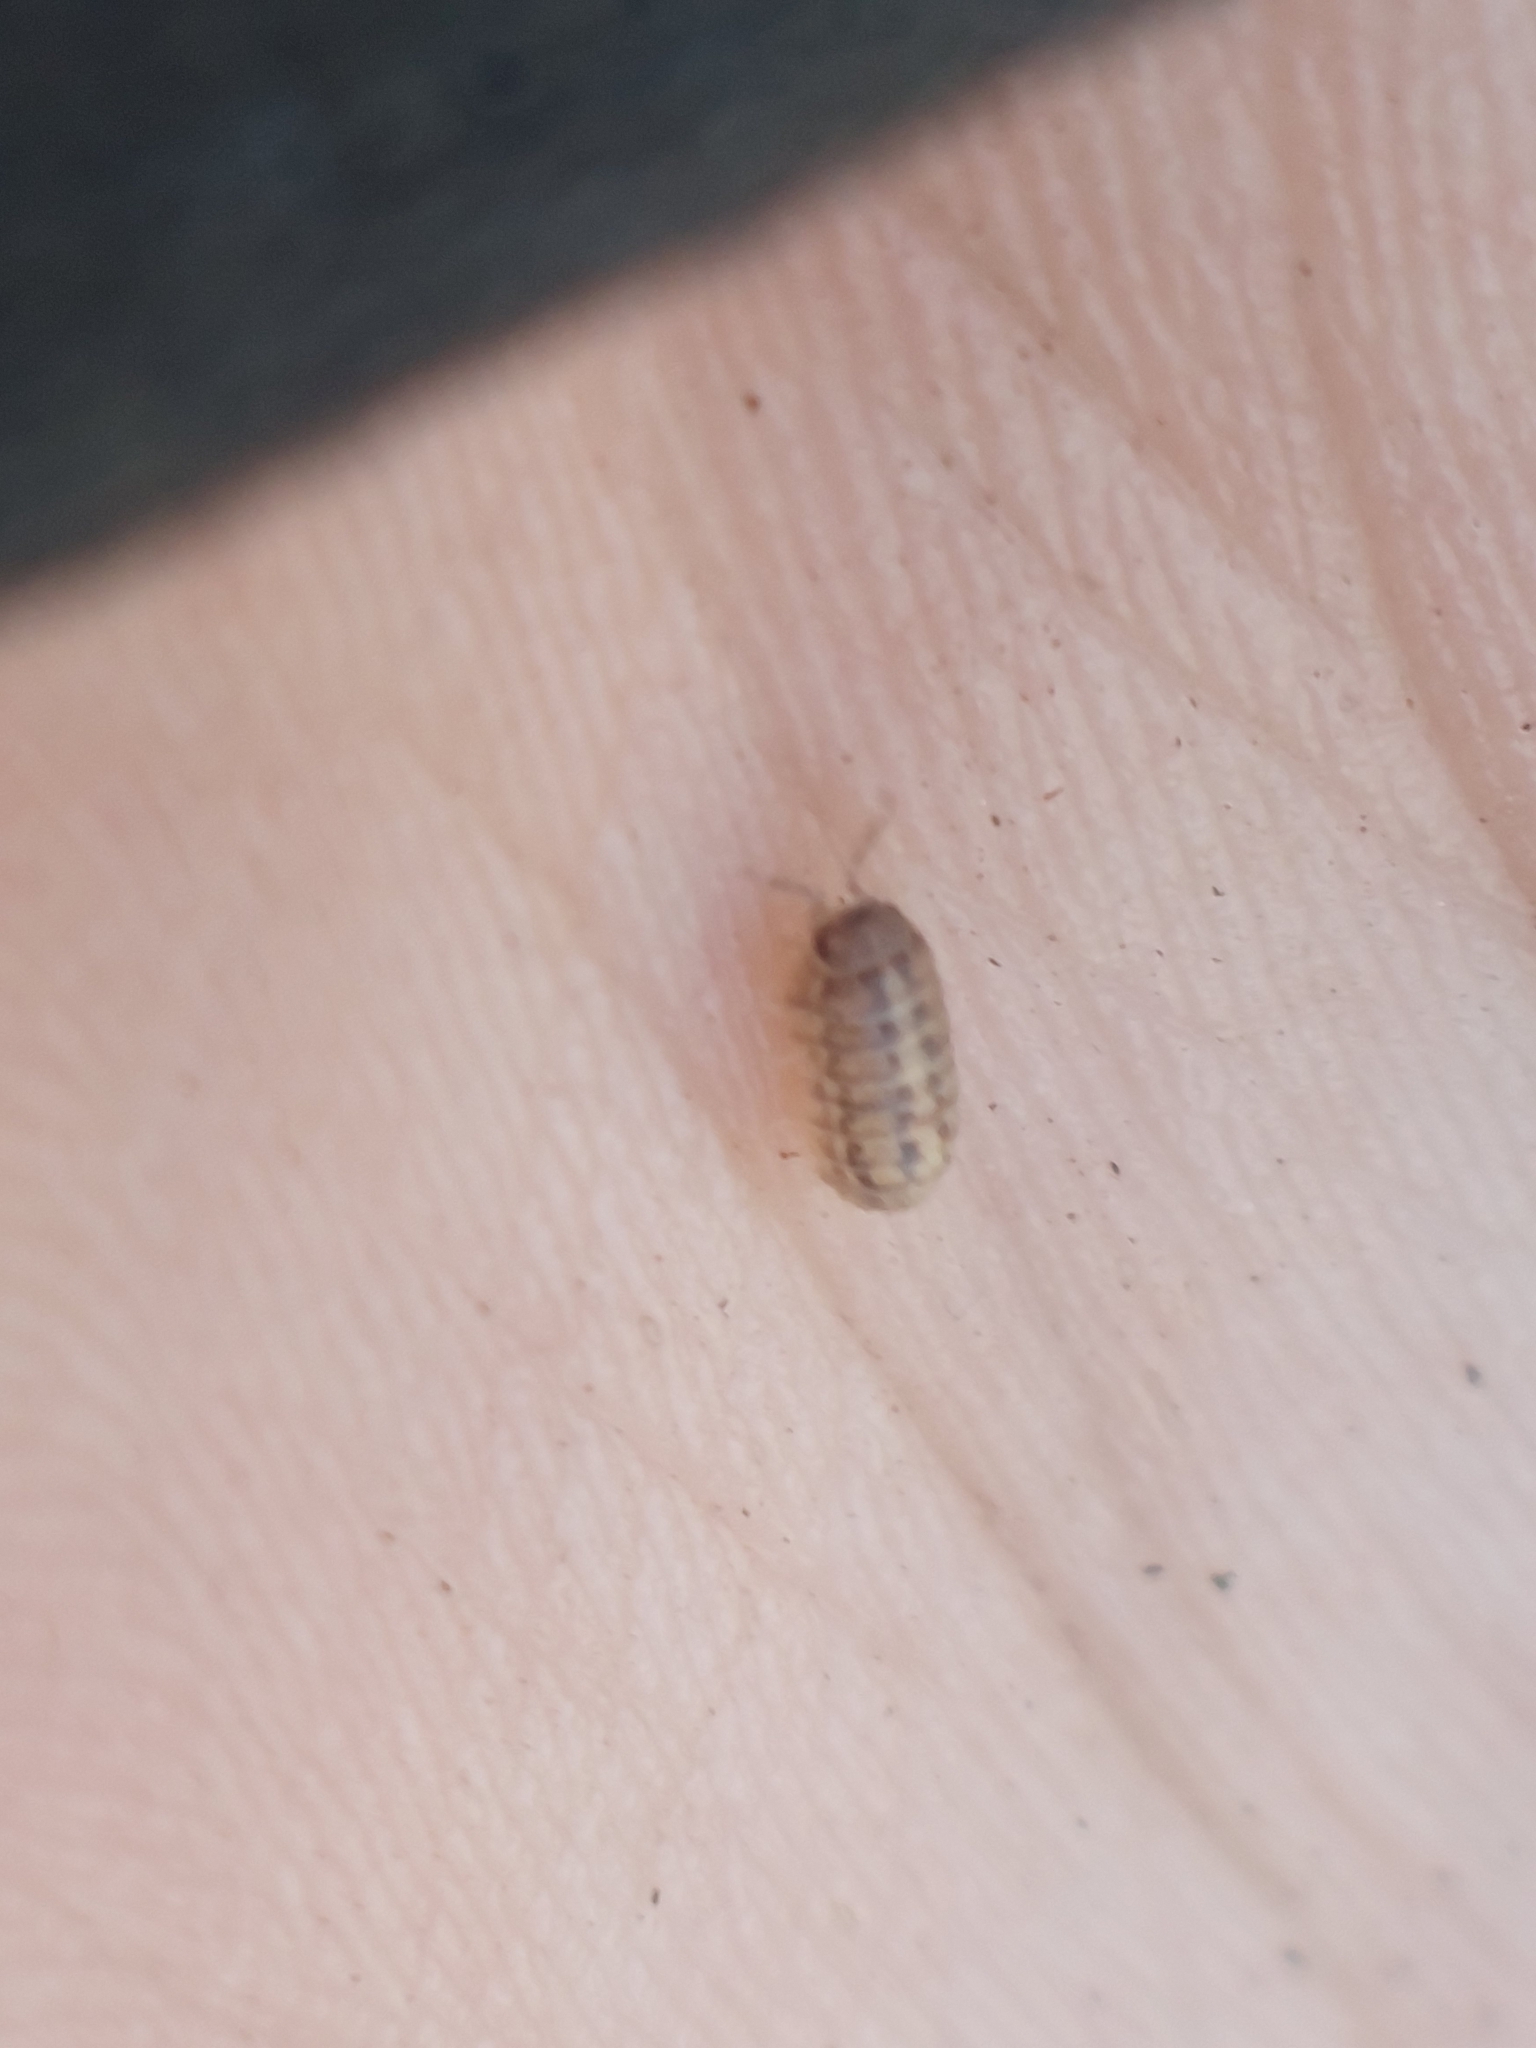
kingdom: Animalia
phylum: Arthropoda
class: Malacostraca
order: Isopoda
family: Armadillidiidae
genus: Armadillidium
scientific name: Armadillidium vulgare
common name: Common pill woodlouse
